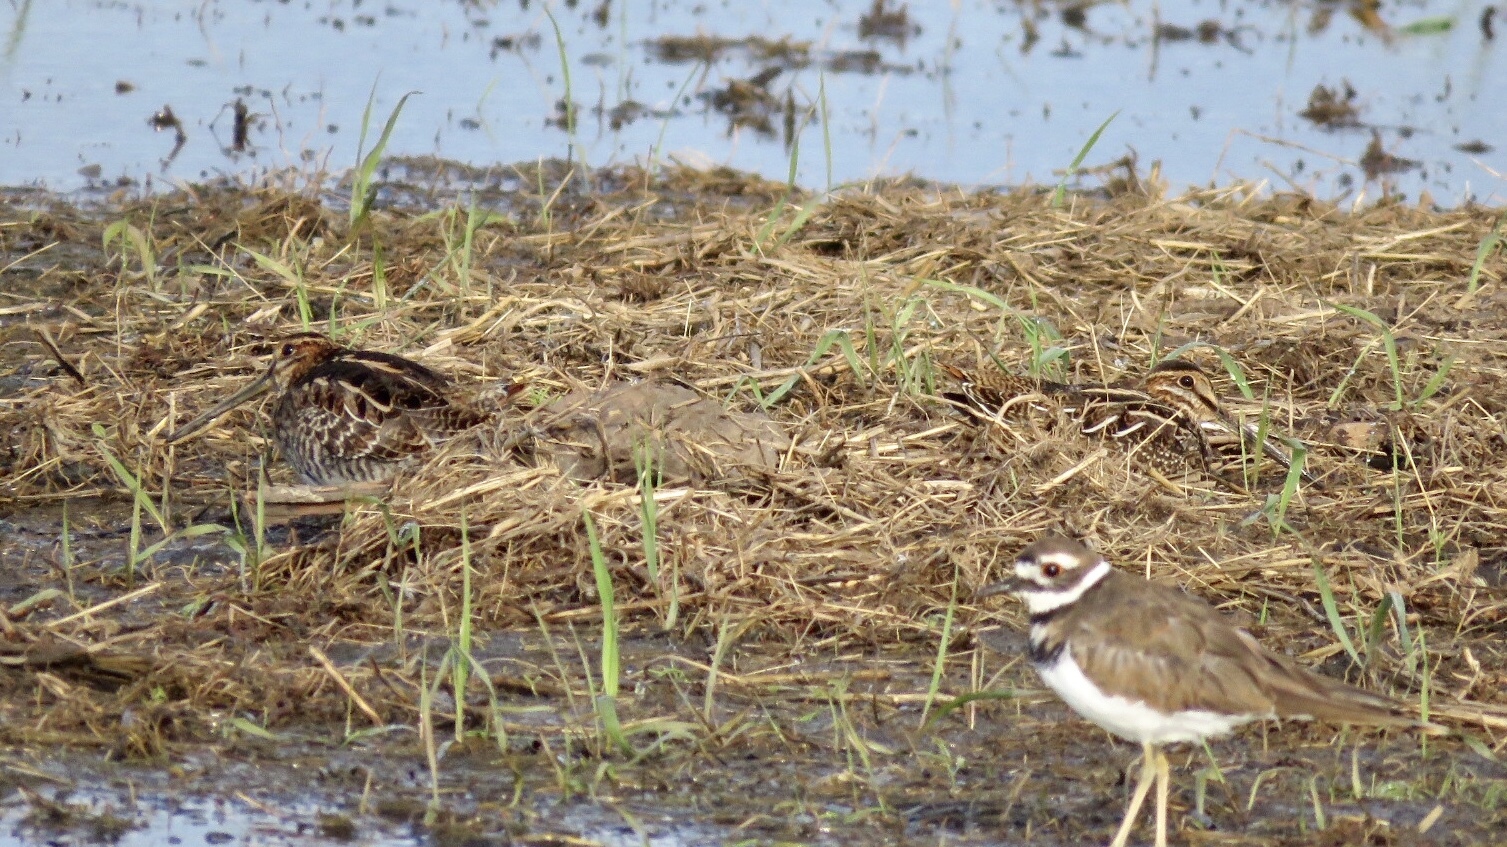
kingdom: Animalia
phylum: Chordata
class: Aves
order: Charadriiformes
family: Scolopacidae
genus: Gallinago
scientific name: Gallinago delicata
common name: Wilson's snipe
